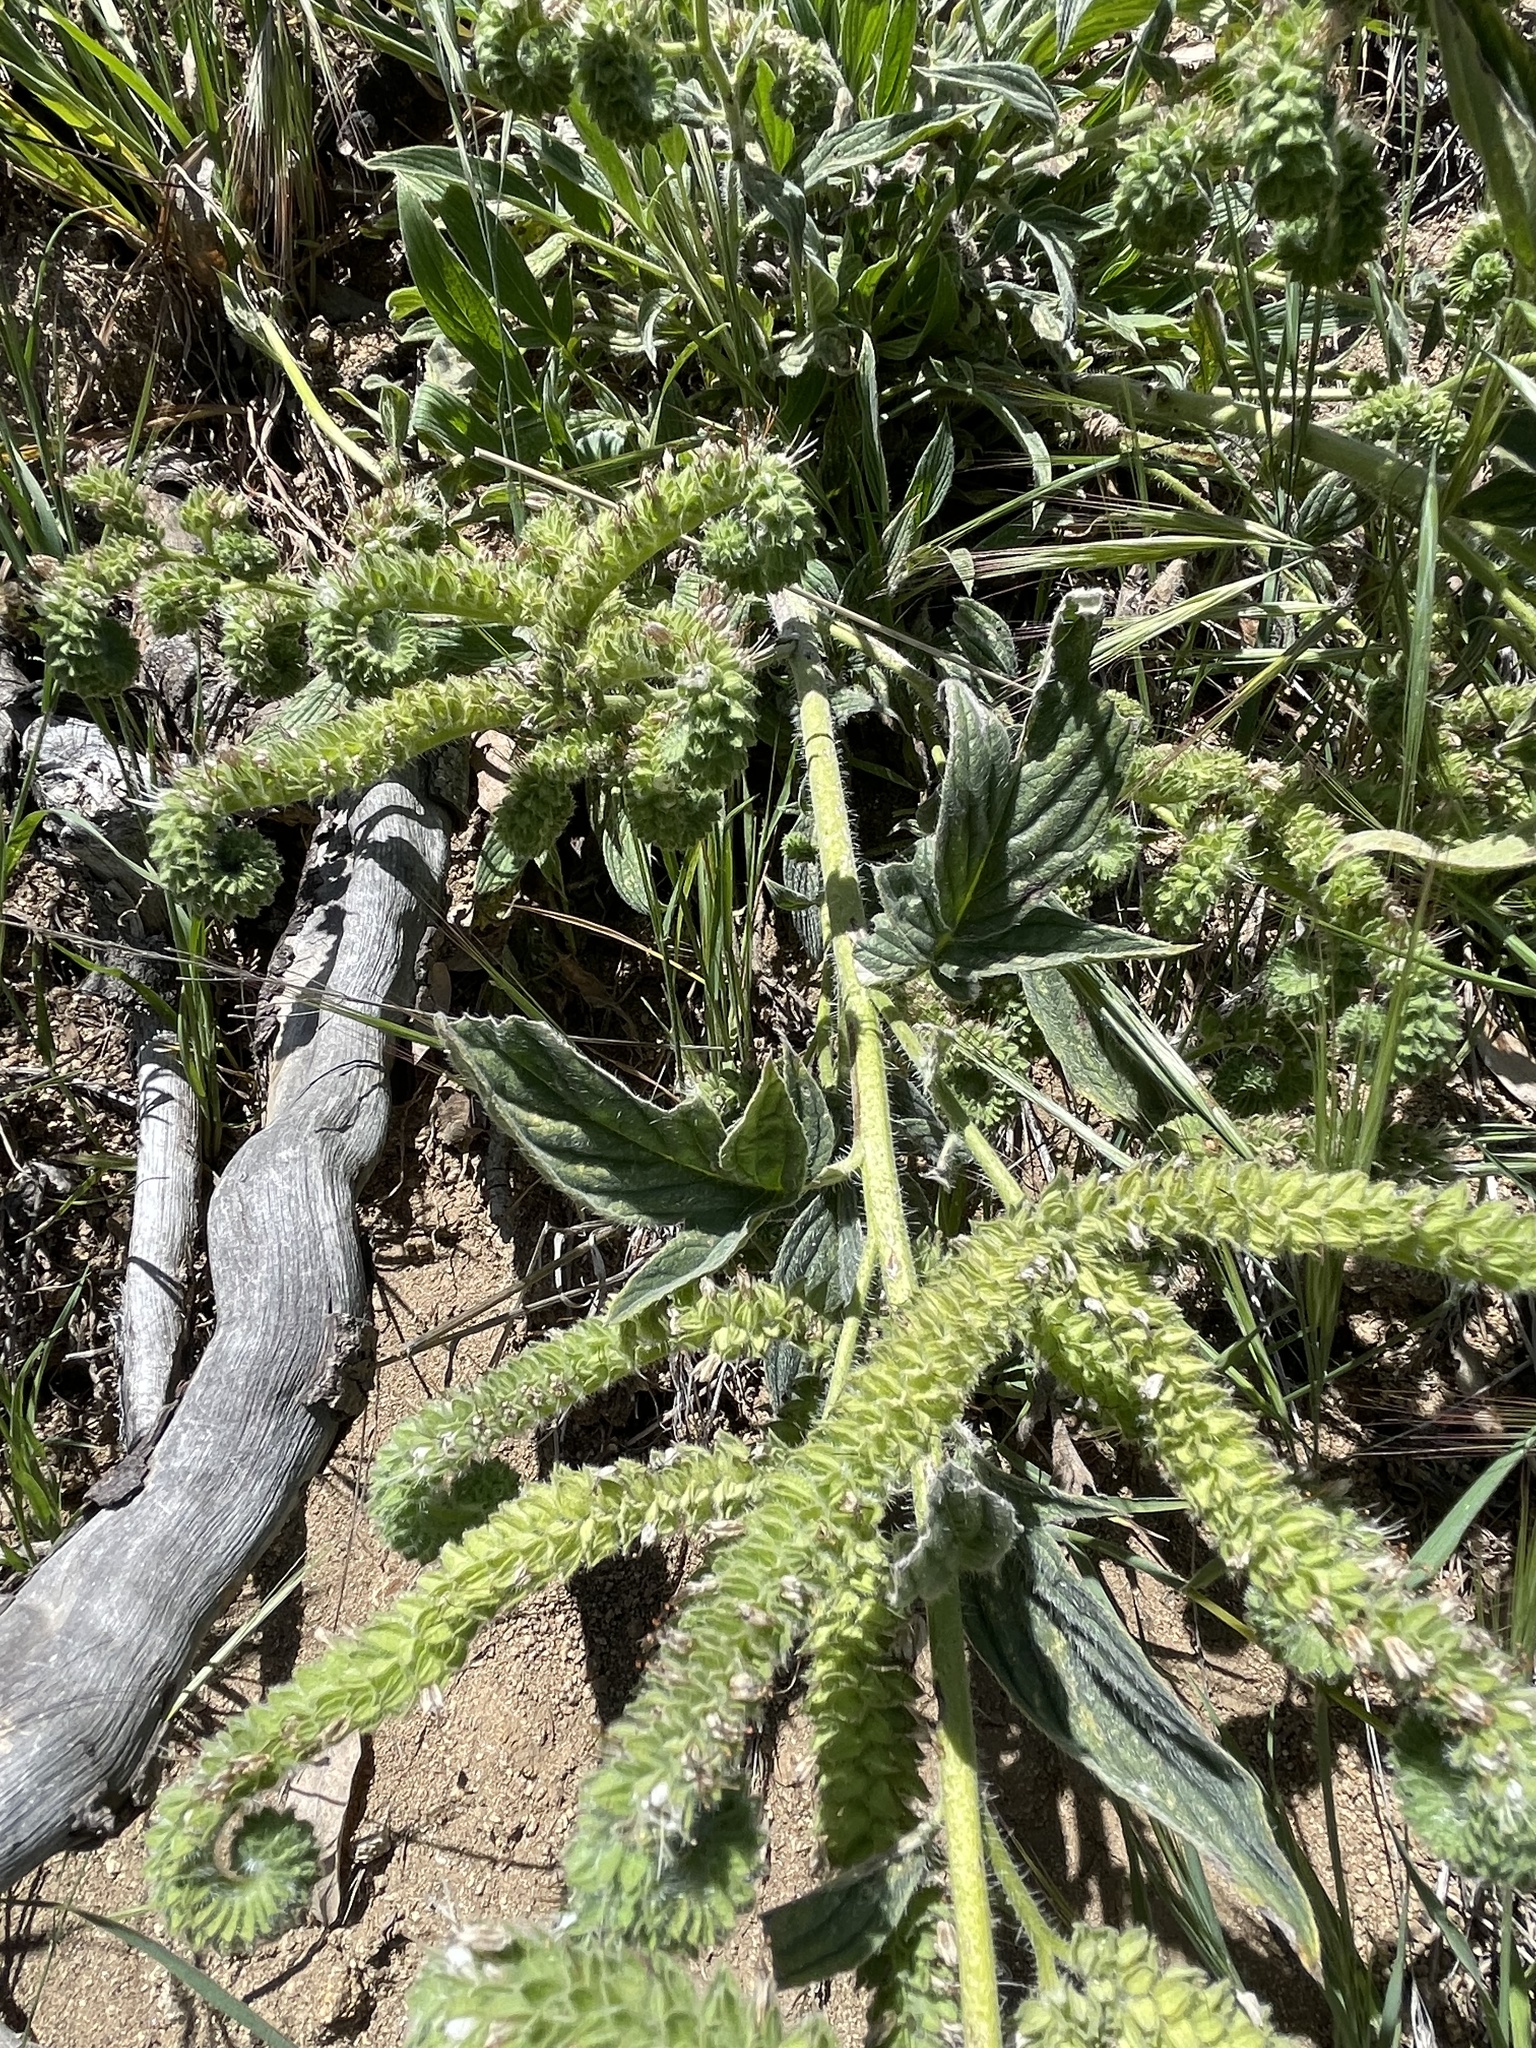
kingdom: Plantae
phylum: Tracheophyta
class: Magnoliopsida
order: Boraginales
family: Hydrophyllaceae
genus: Phacelia
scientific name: Phacelia imbricata
